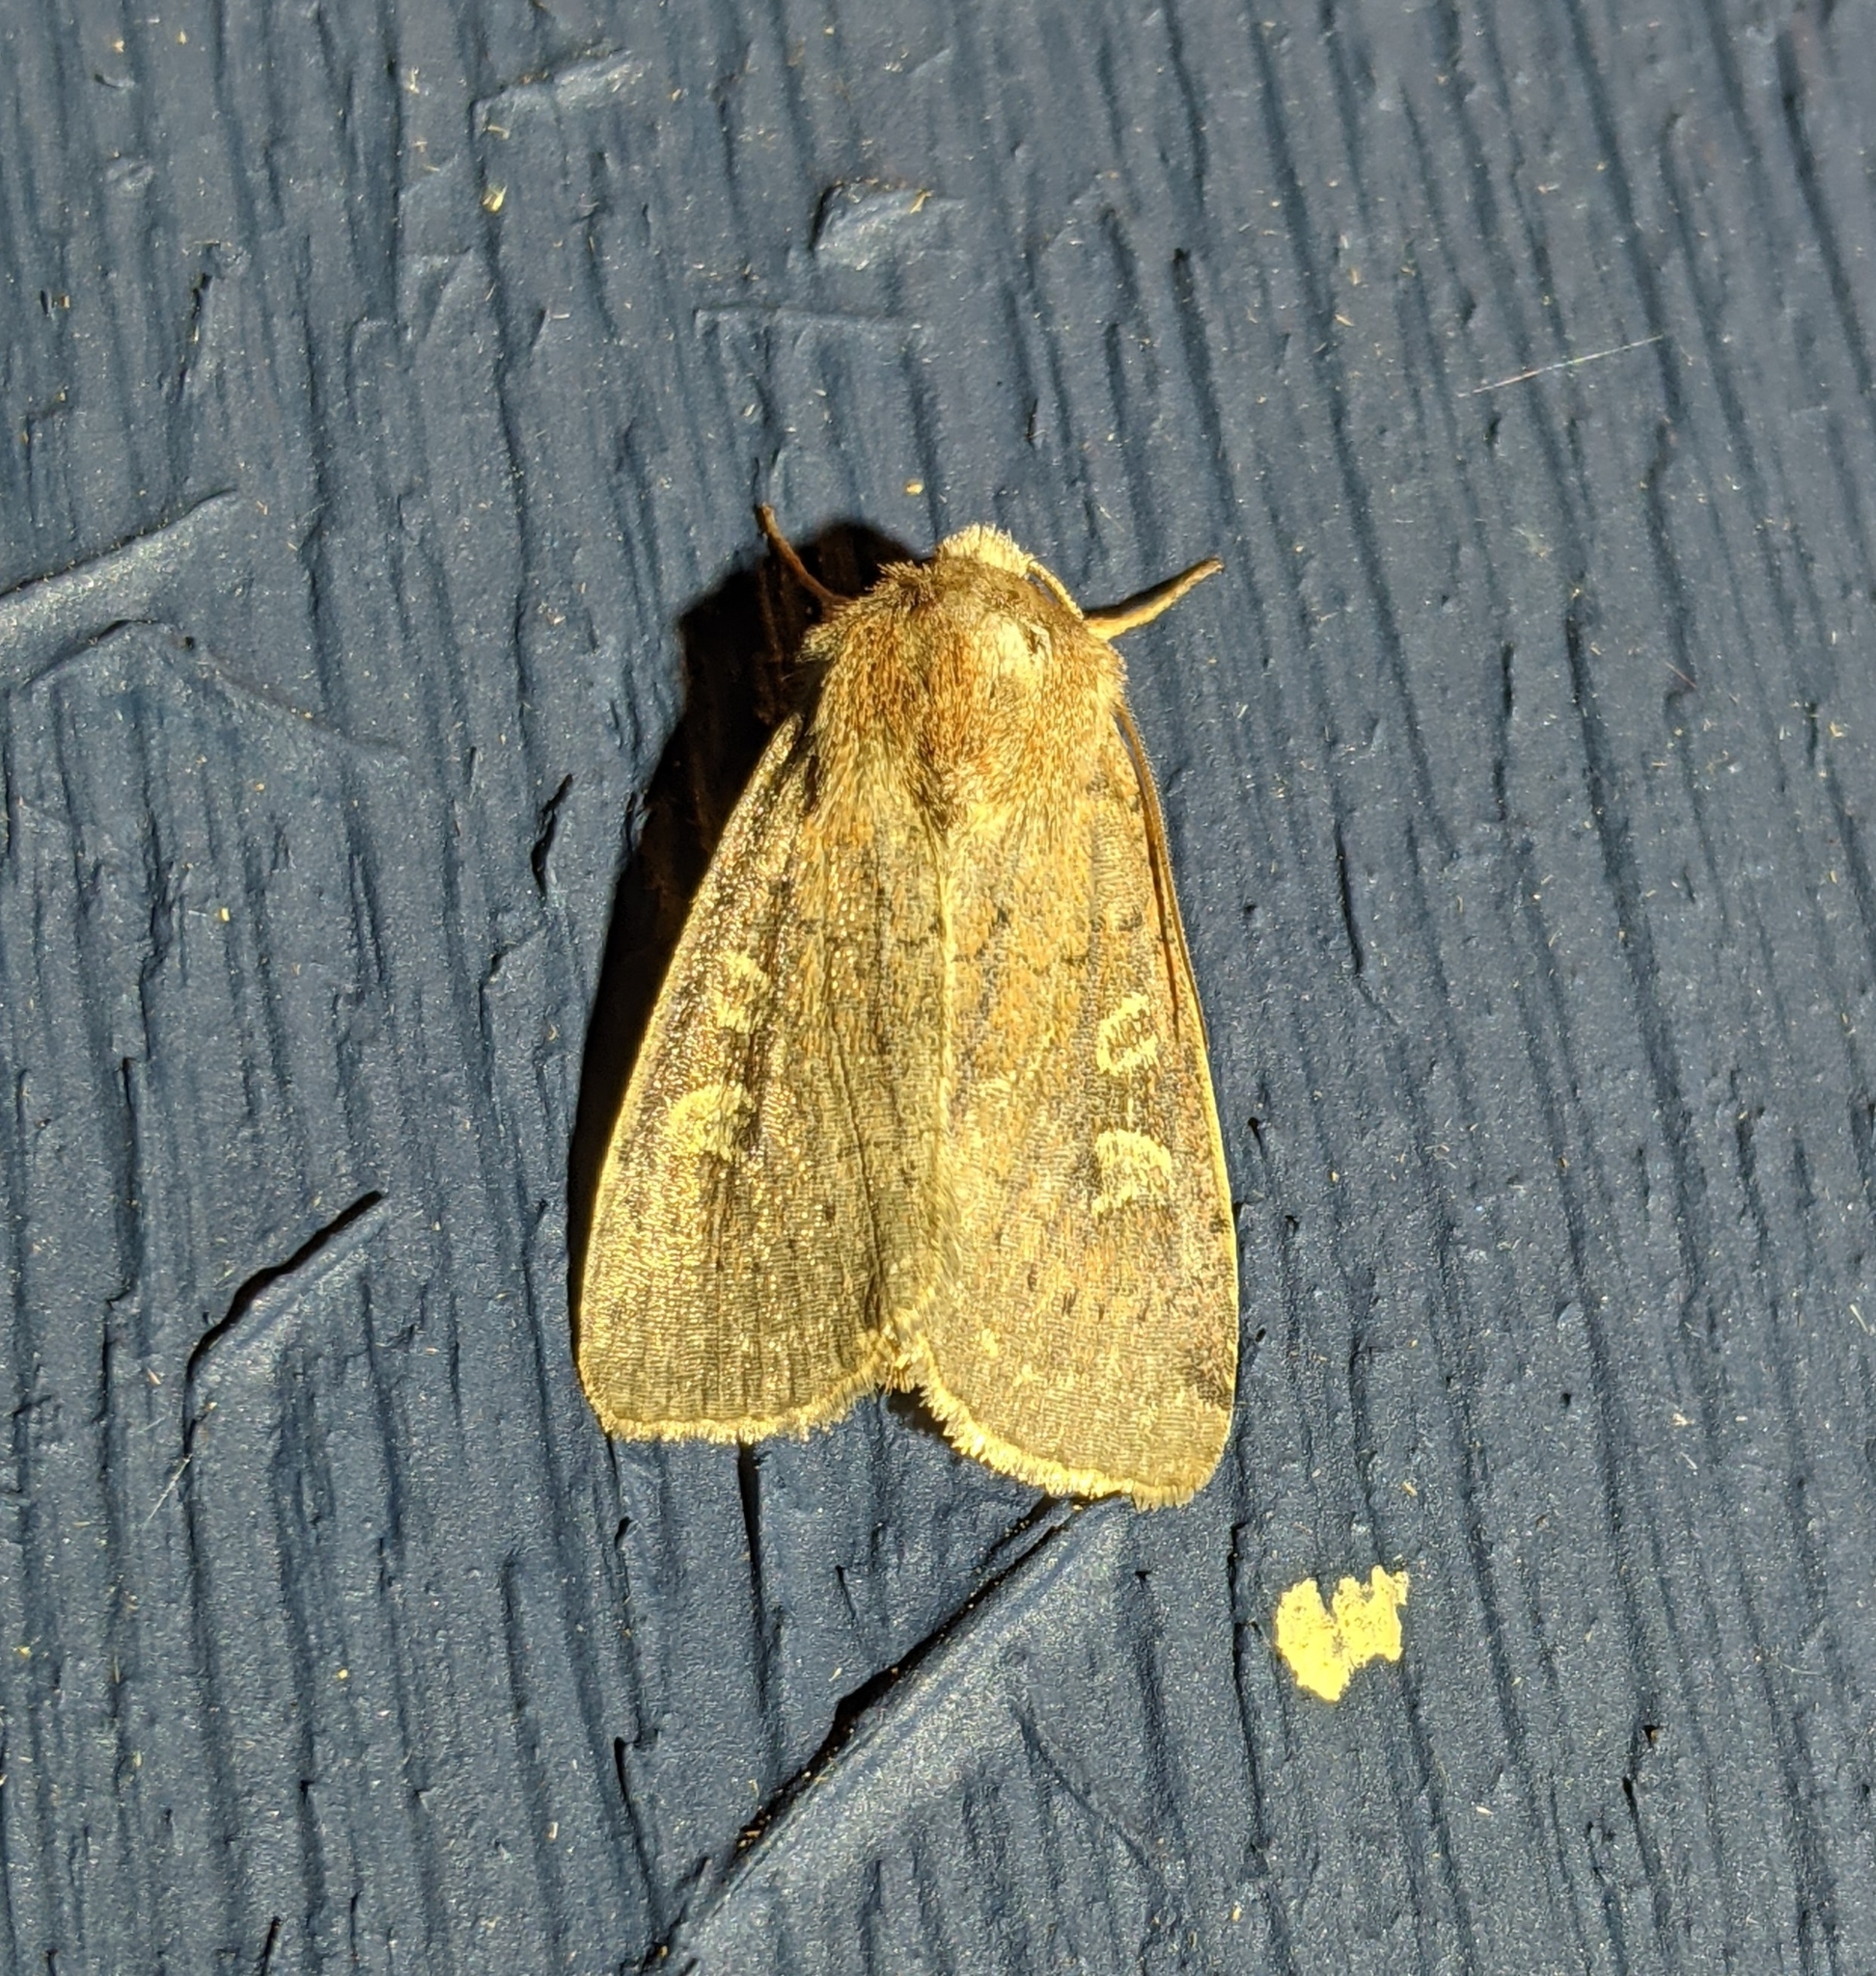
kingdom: Animalia
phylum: Arthropoda
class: Insecta
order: Lepidoptera
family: Noctuidae
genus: Xestia
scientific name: Xestia xanthographa
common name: Square-spot rustic
